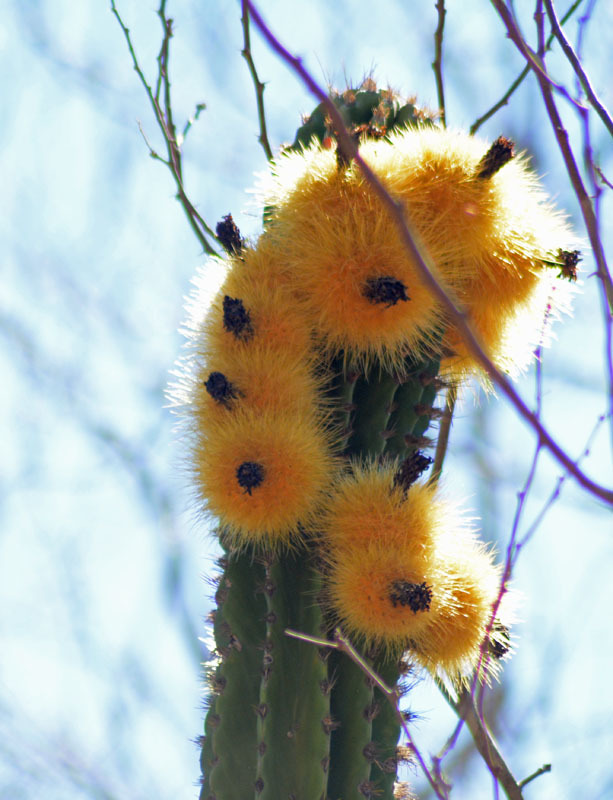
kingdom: Plantae
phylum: Tracheophyta
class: Magnoliopsida
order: Caryophyllales
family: Cactaceae
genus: Pachycereus
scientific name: Pachycereus pecten-aboriginum
